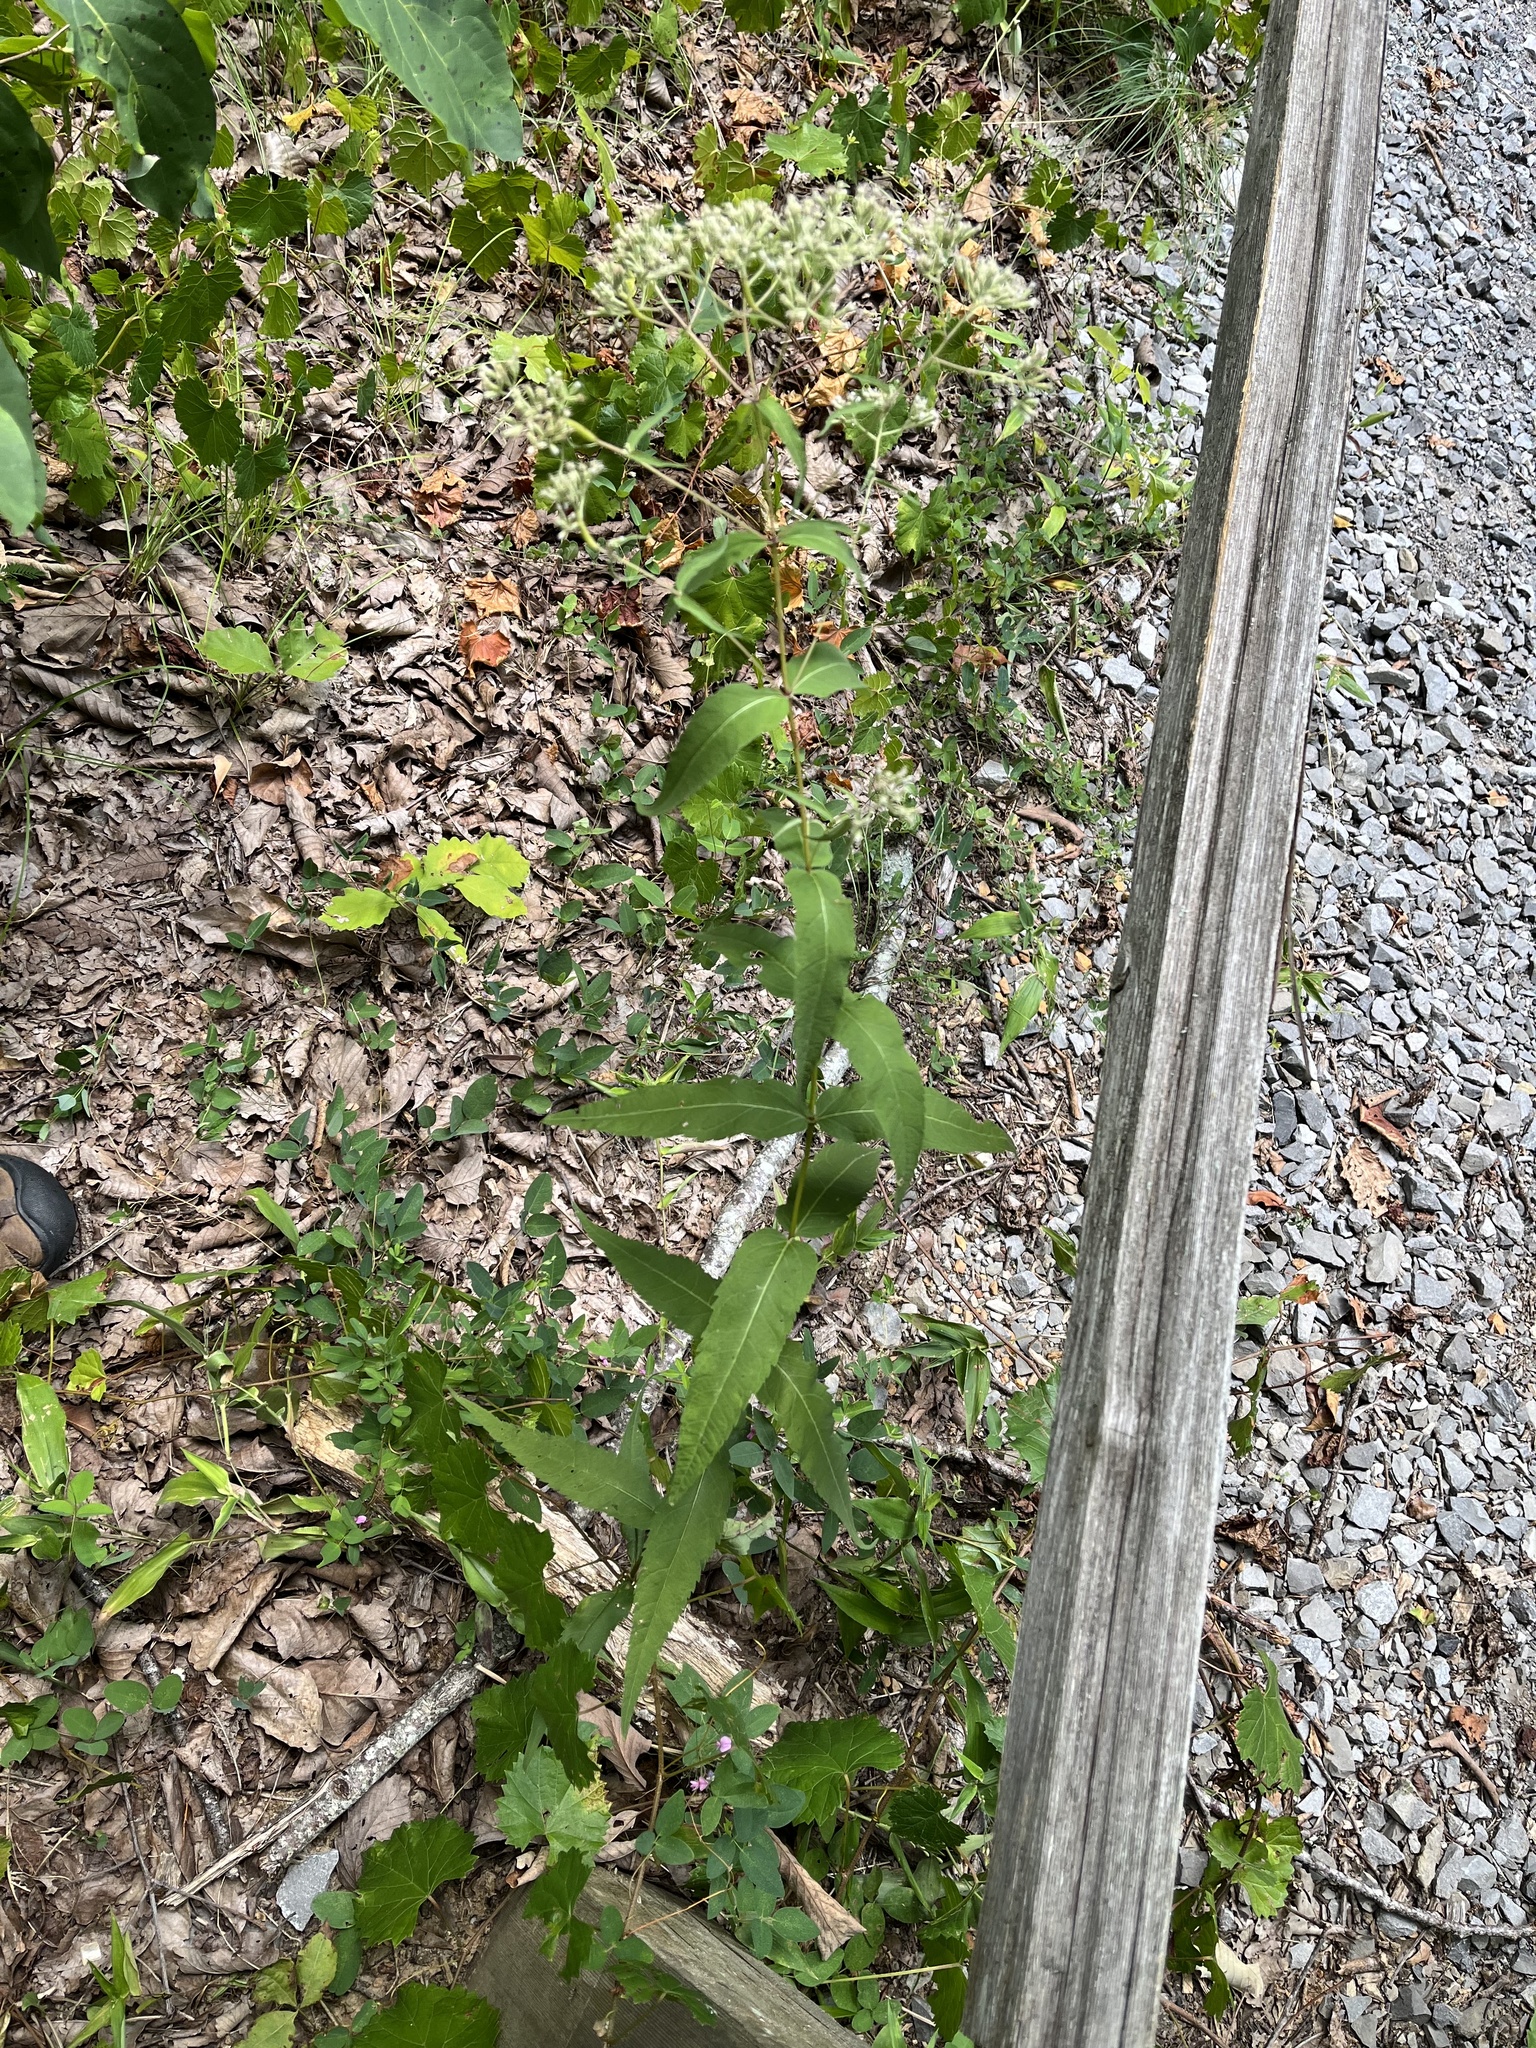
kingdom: Plantae
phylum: Tracheophyta
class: Magnoliopsida
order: Asterales
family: Asteraceae
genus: Eupatorium
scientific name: Eupatorium sessilifolium
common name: Upland boneset
